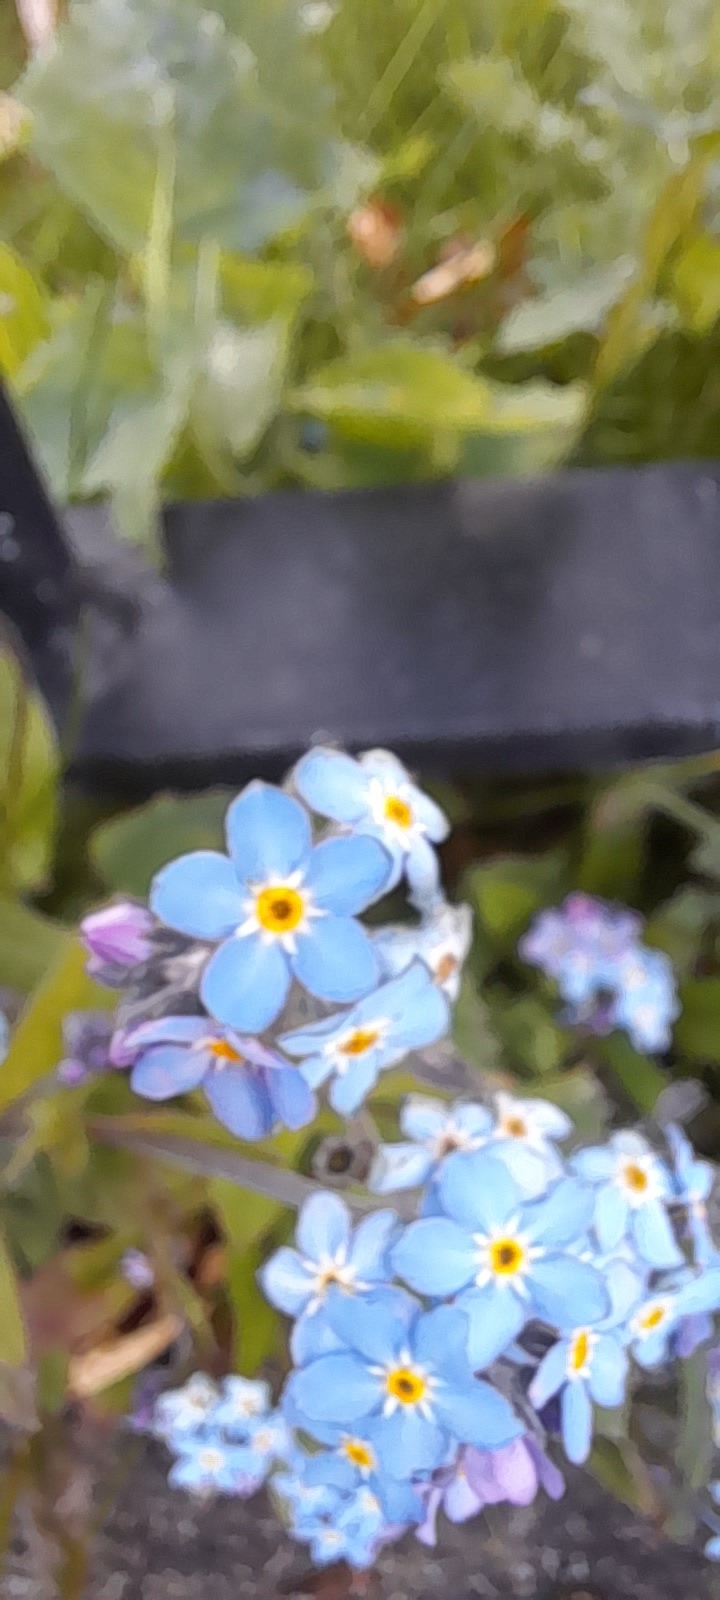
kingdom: Plantae
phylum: Tracheophyta
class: Magnoliopsida
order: Boraginales
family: Boraginaceae
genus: Myosotis
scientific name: Myosotis sylvatica
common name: Wood forget-me-not
